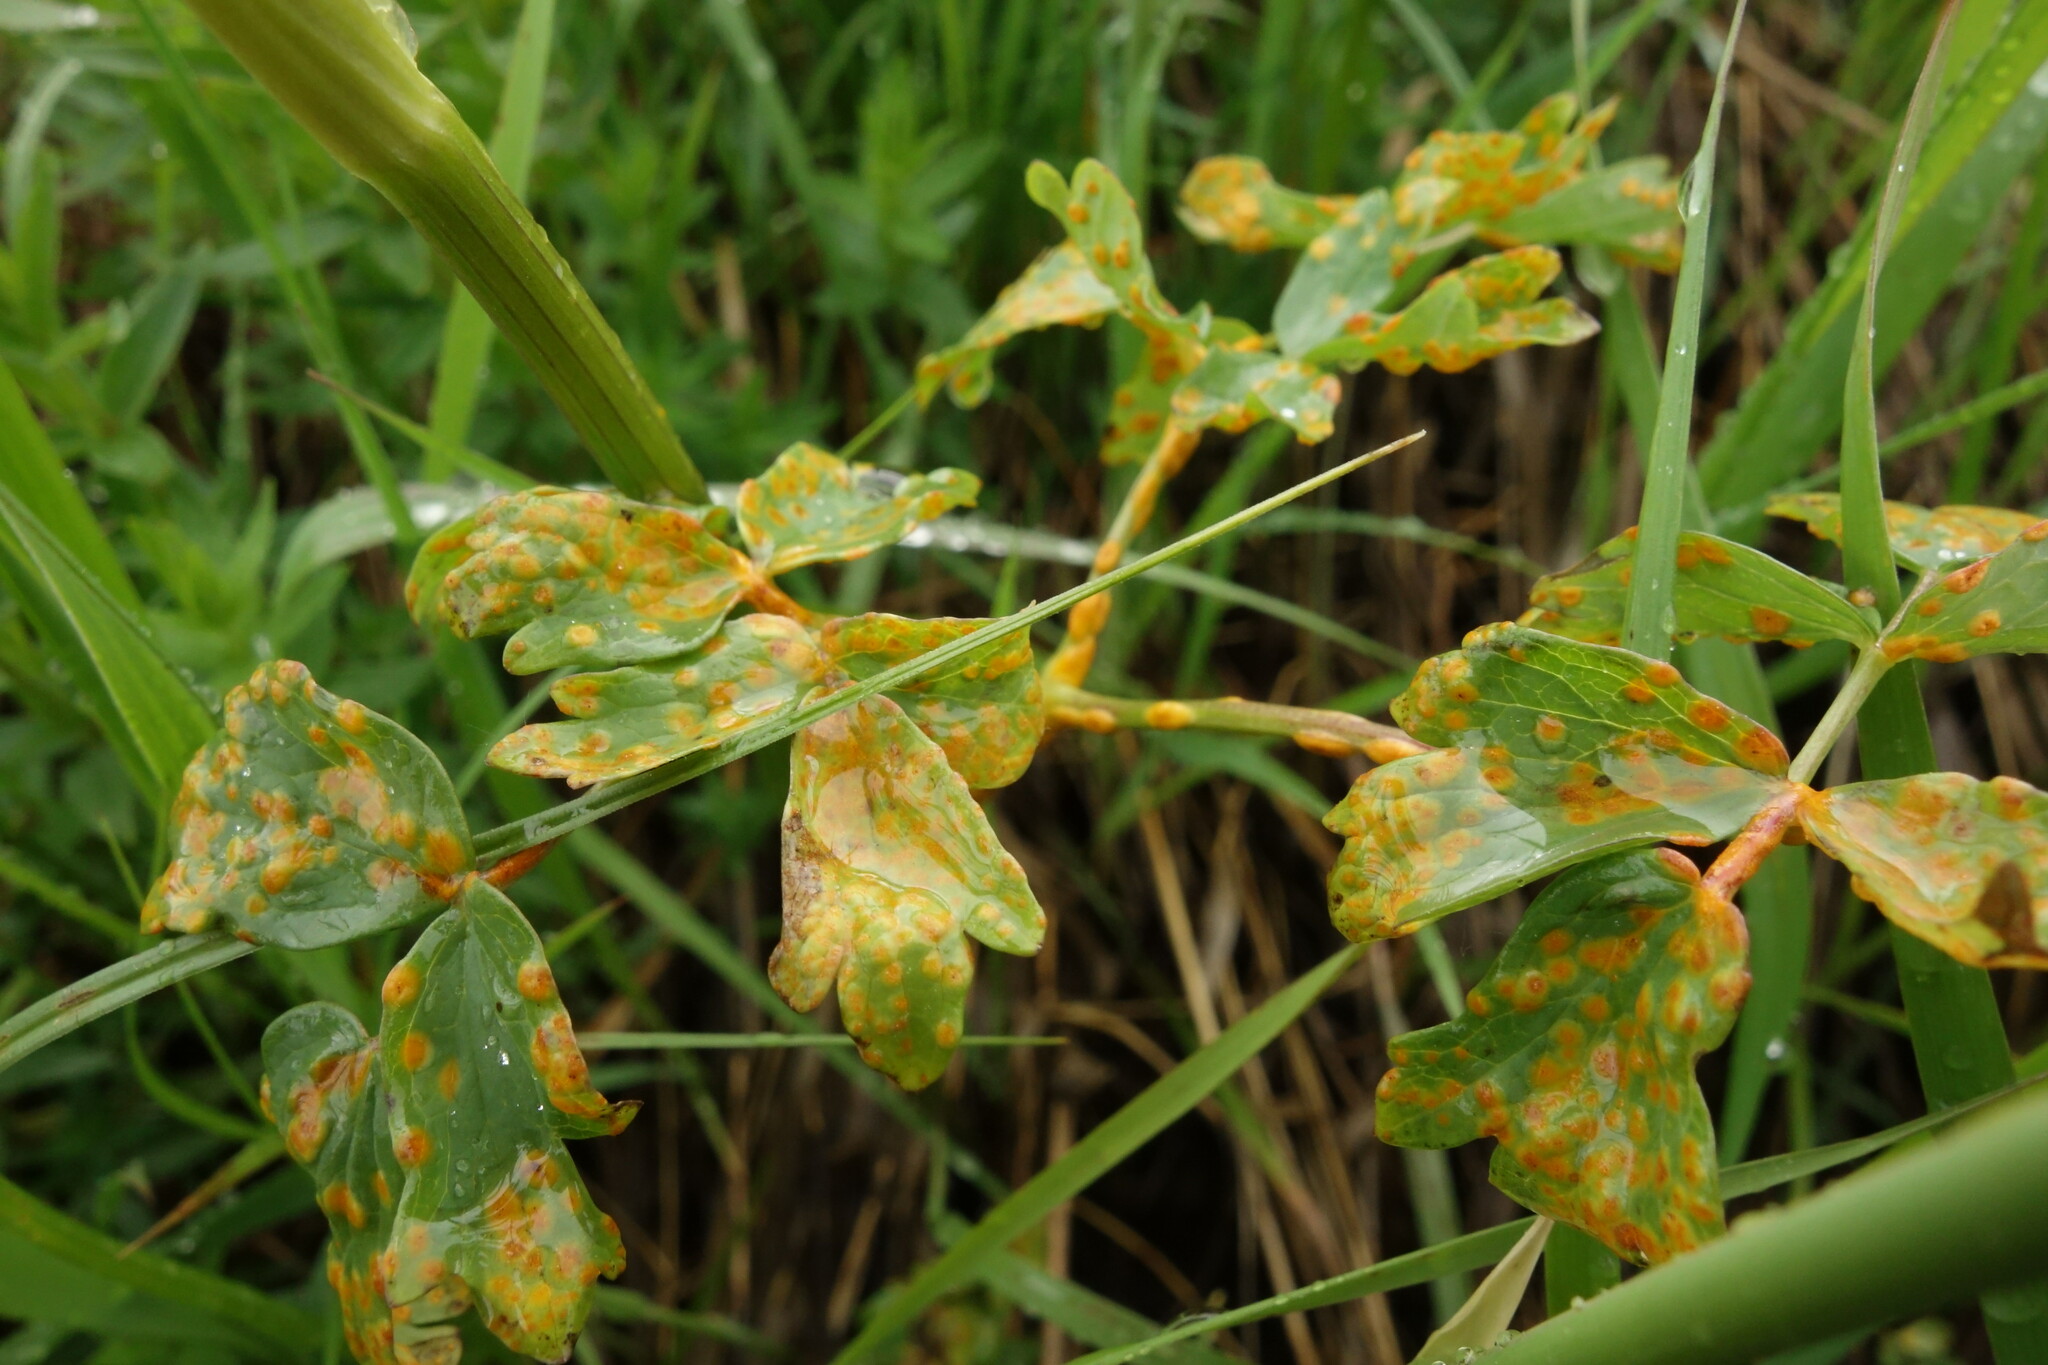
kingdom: Fungi
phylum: Basidiomycota
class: Pucciniomycetes
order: Pucciniales
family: Pucciniaceae
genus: Puccinia
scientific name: Puccinia recondita
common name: Brown rust of wheat
